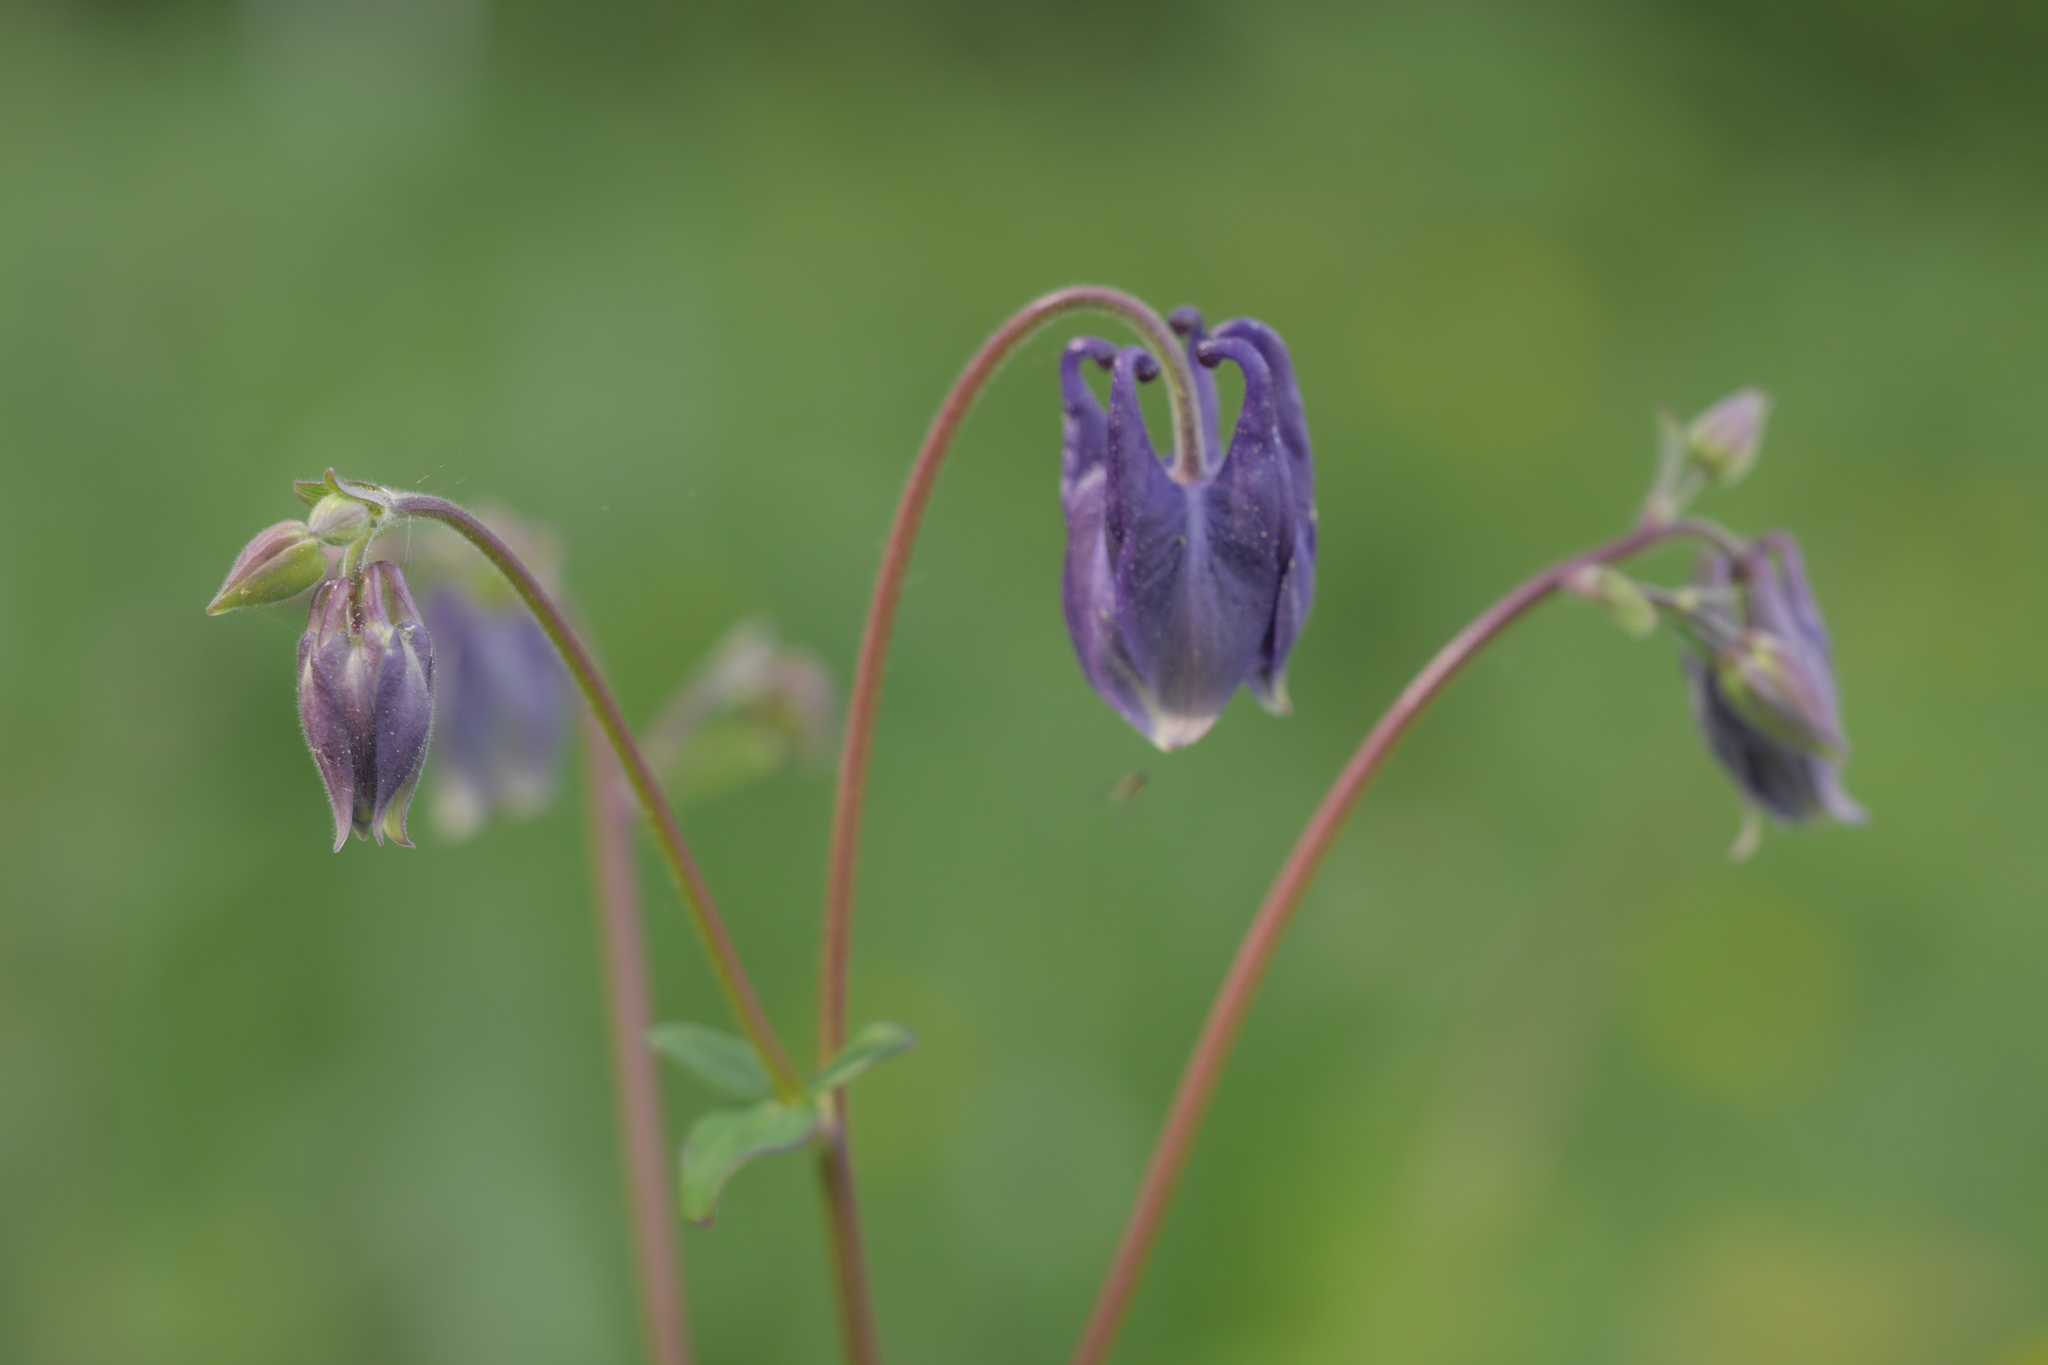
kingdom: Plantae
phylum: Tracheophyta
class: Magnoliopsida
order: Ranunculales
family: Ranunculaceae
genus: Aquilegia
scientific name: Aquilegia vulgaris
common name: Columbine
